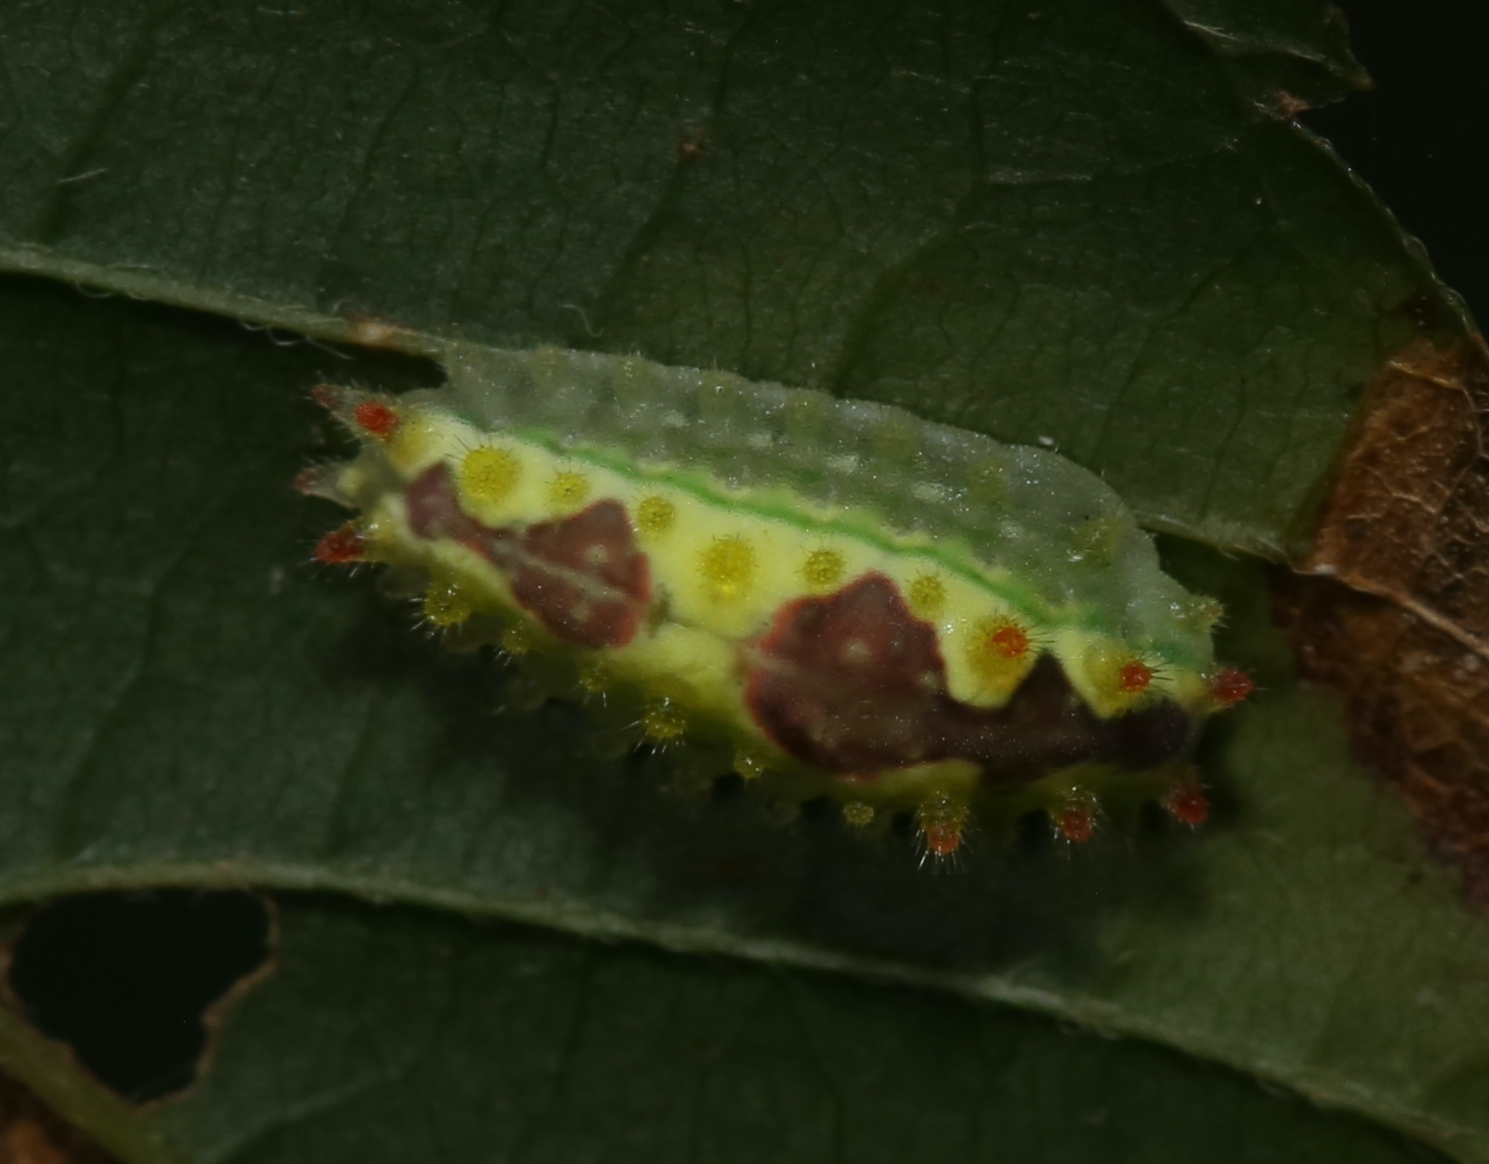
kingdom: Animalia
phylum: Arthropoda
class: Insecta
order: Lepidoptera
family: Limacodidae
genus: Adoneta
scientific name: Adoneta spinuloides
